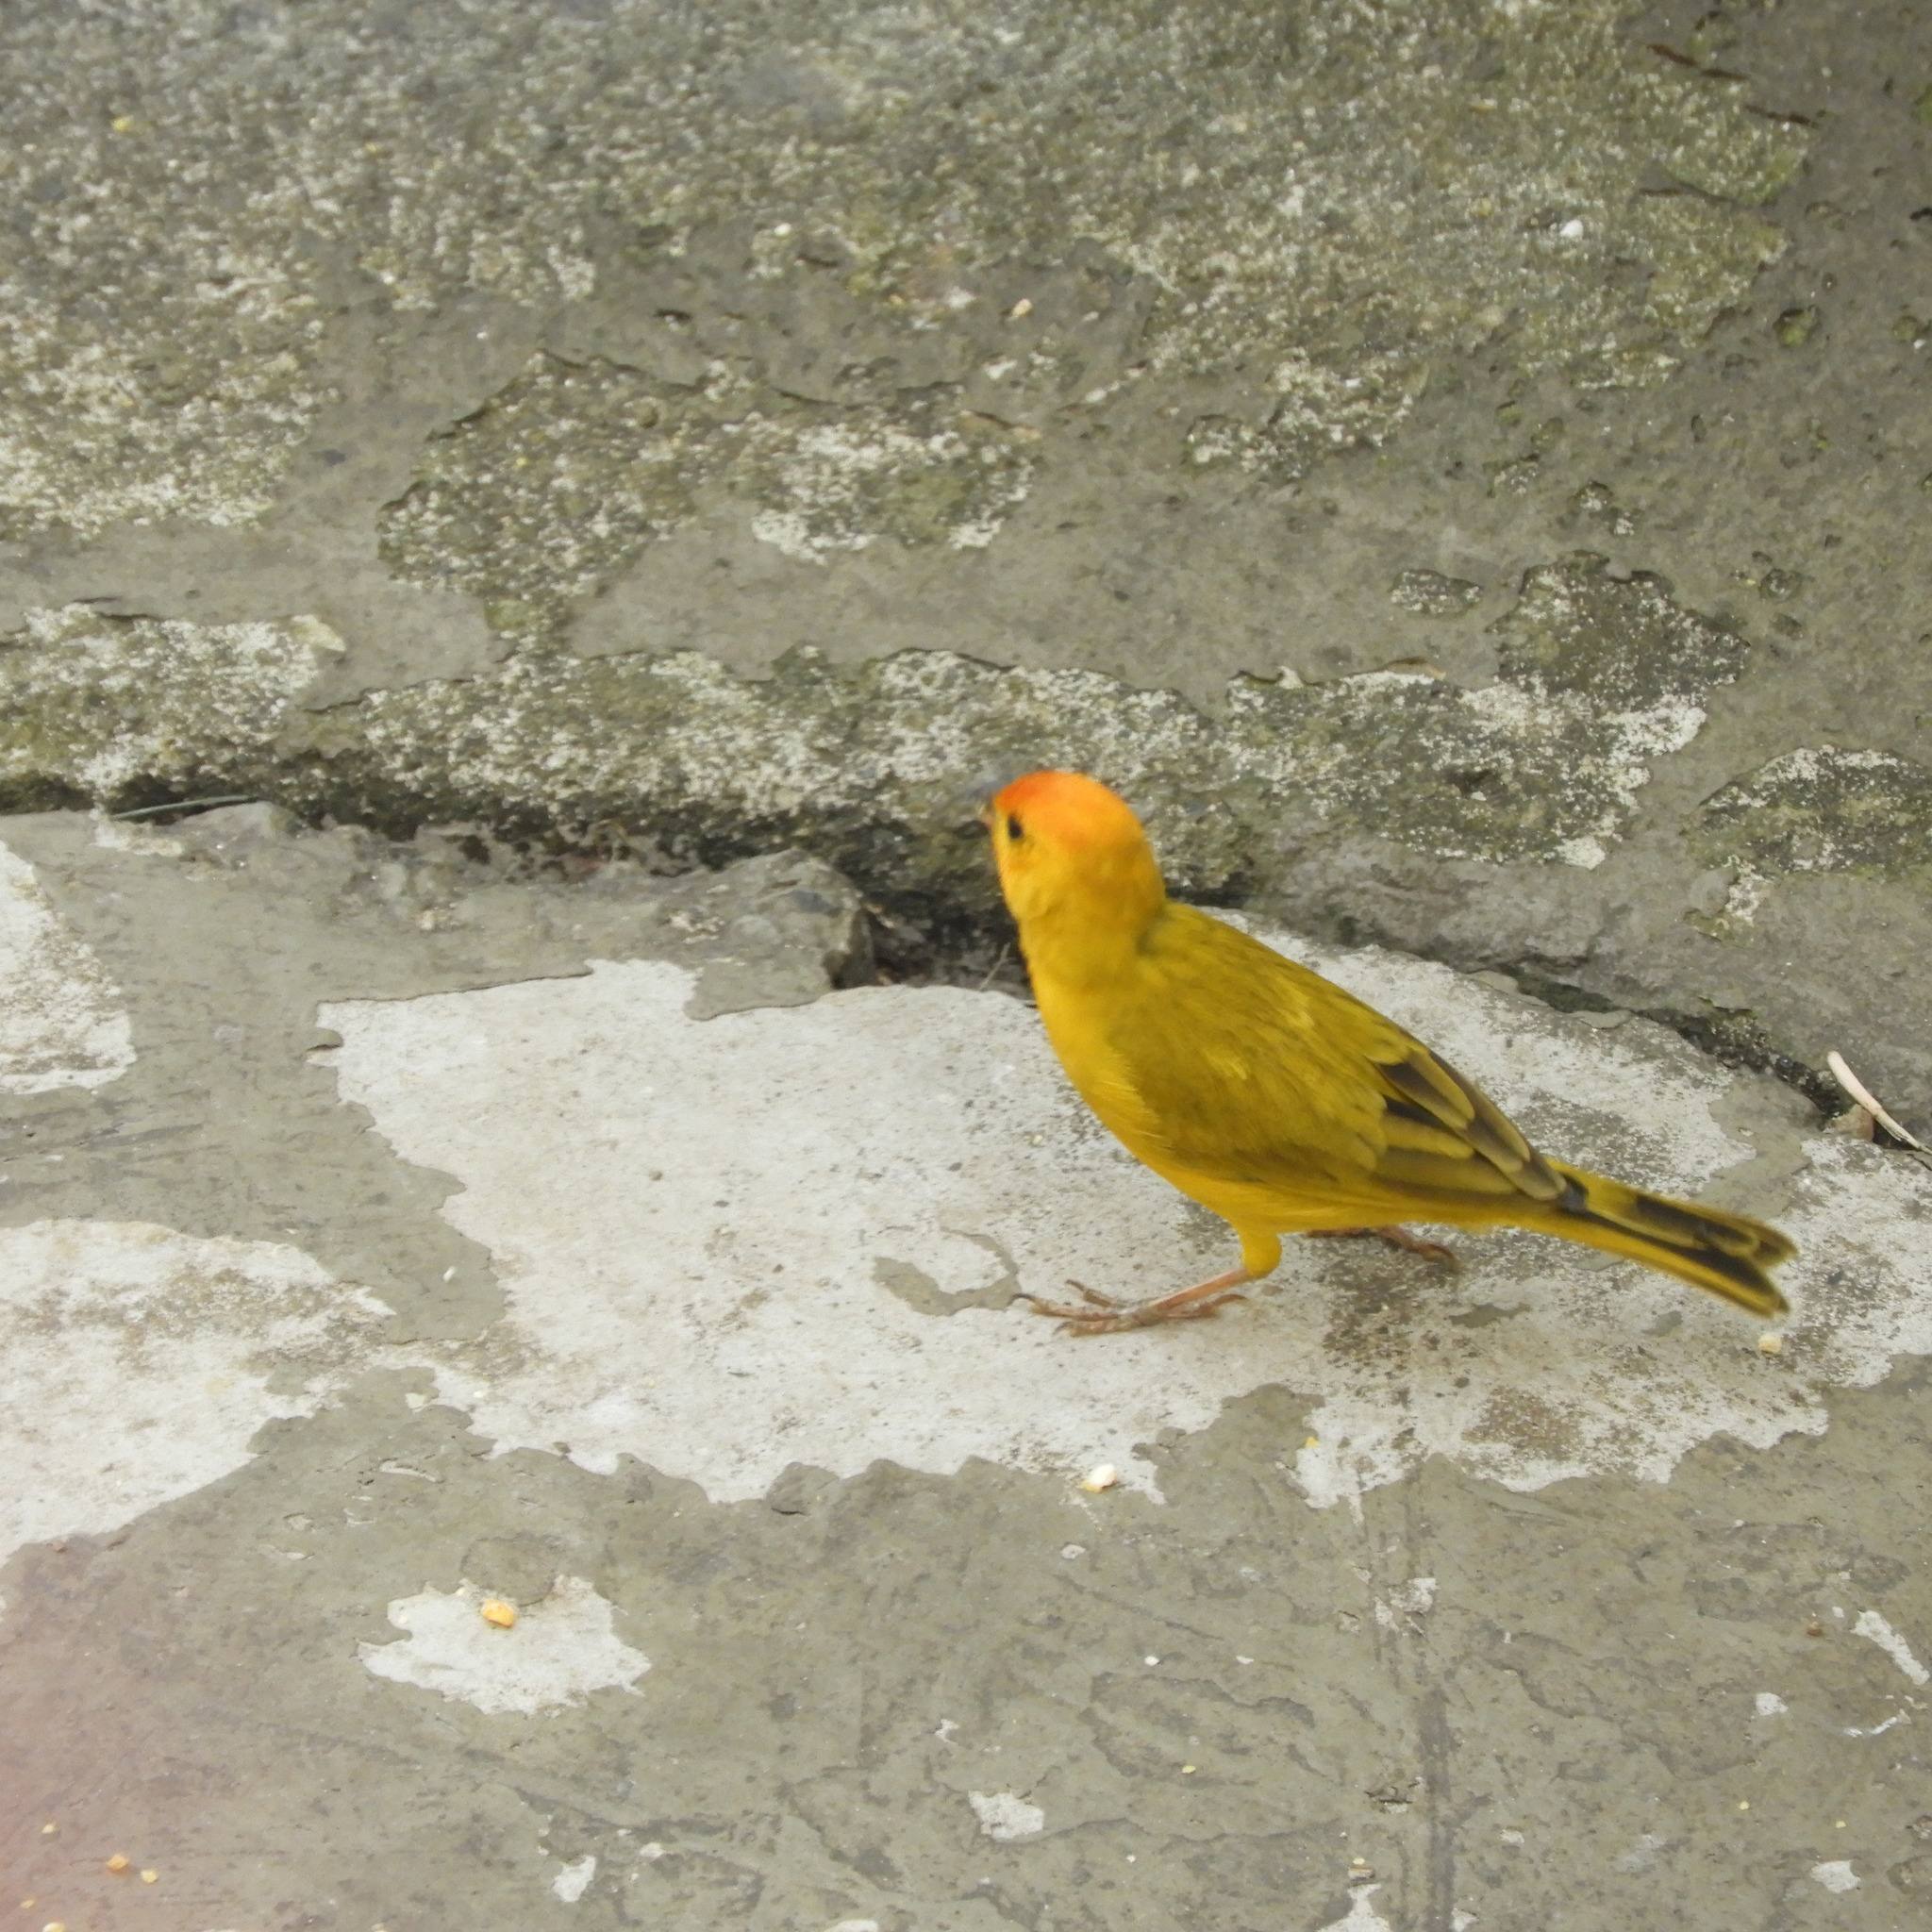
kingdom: Animalia
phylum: Chordata
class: Aves
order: Passeriformes
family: Thraupidae
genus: Sicalis
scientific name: Sicalis flaveola
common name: Saffron finch
